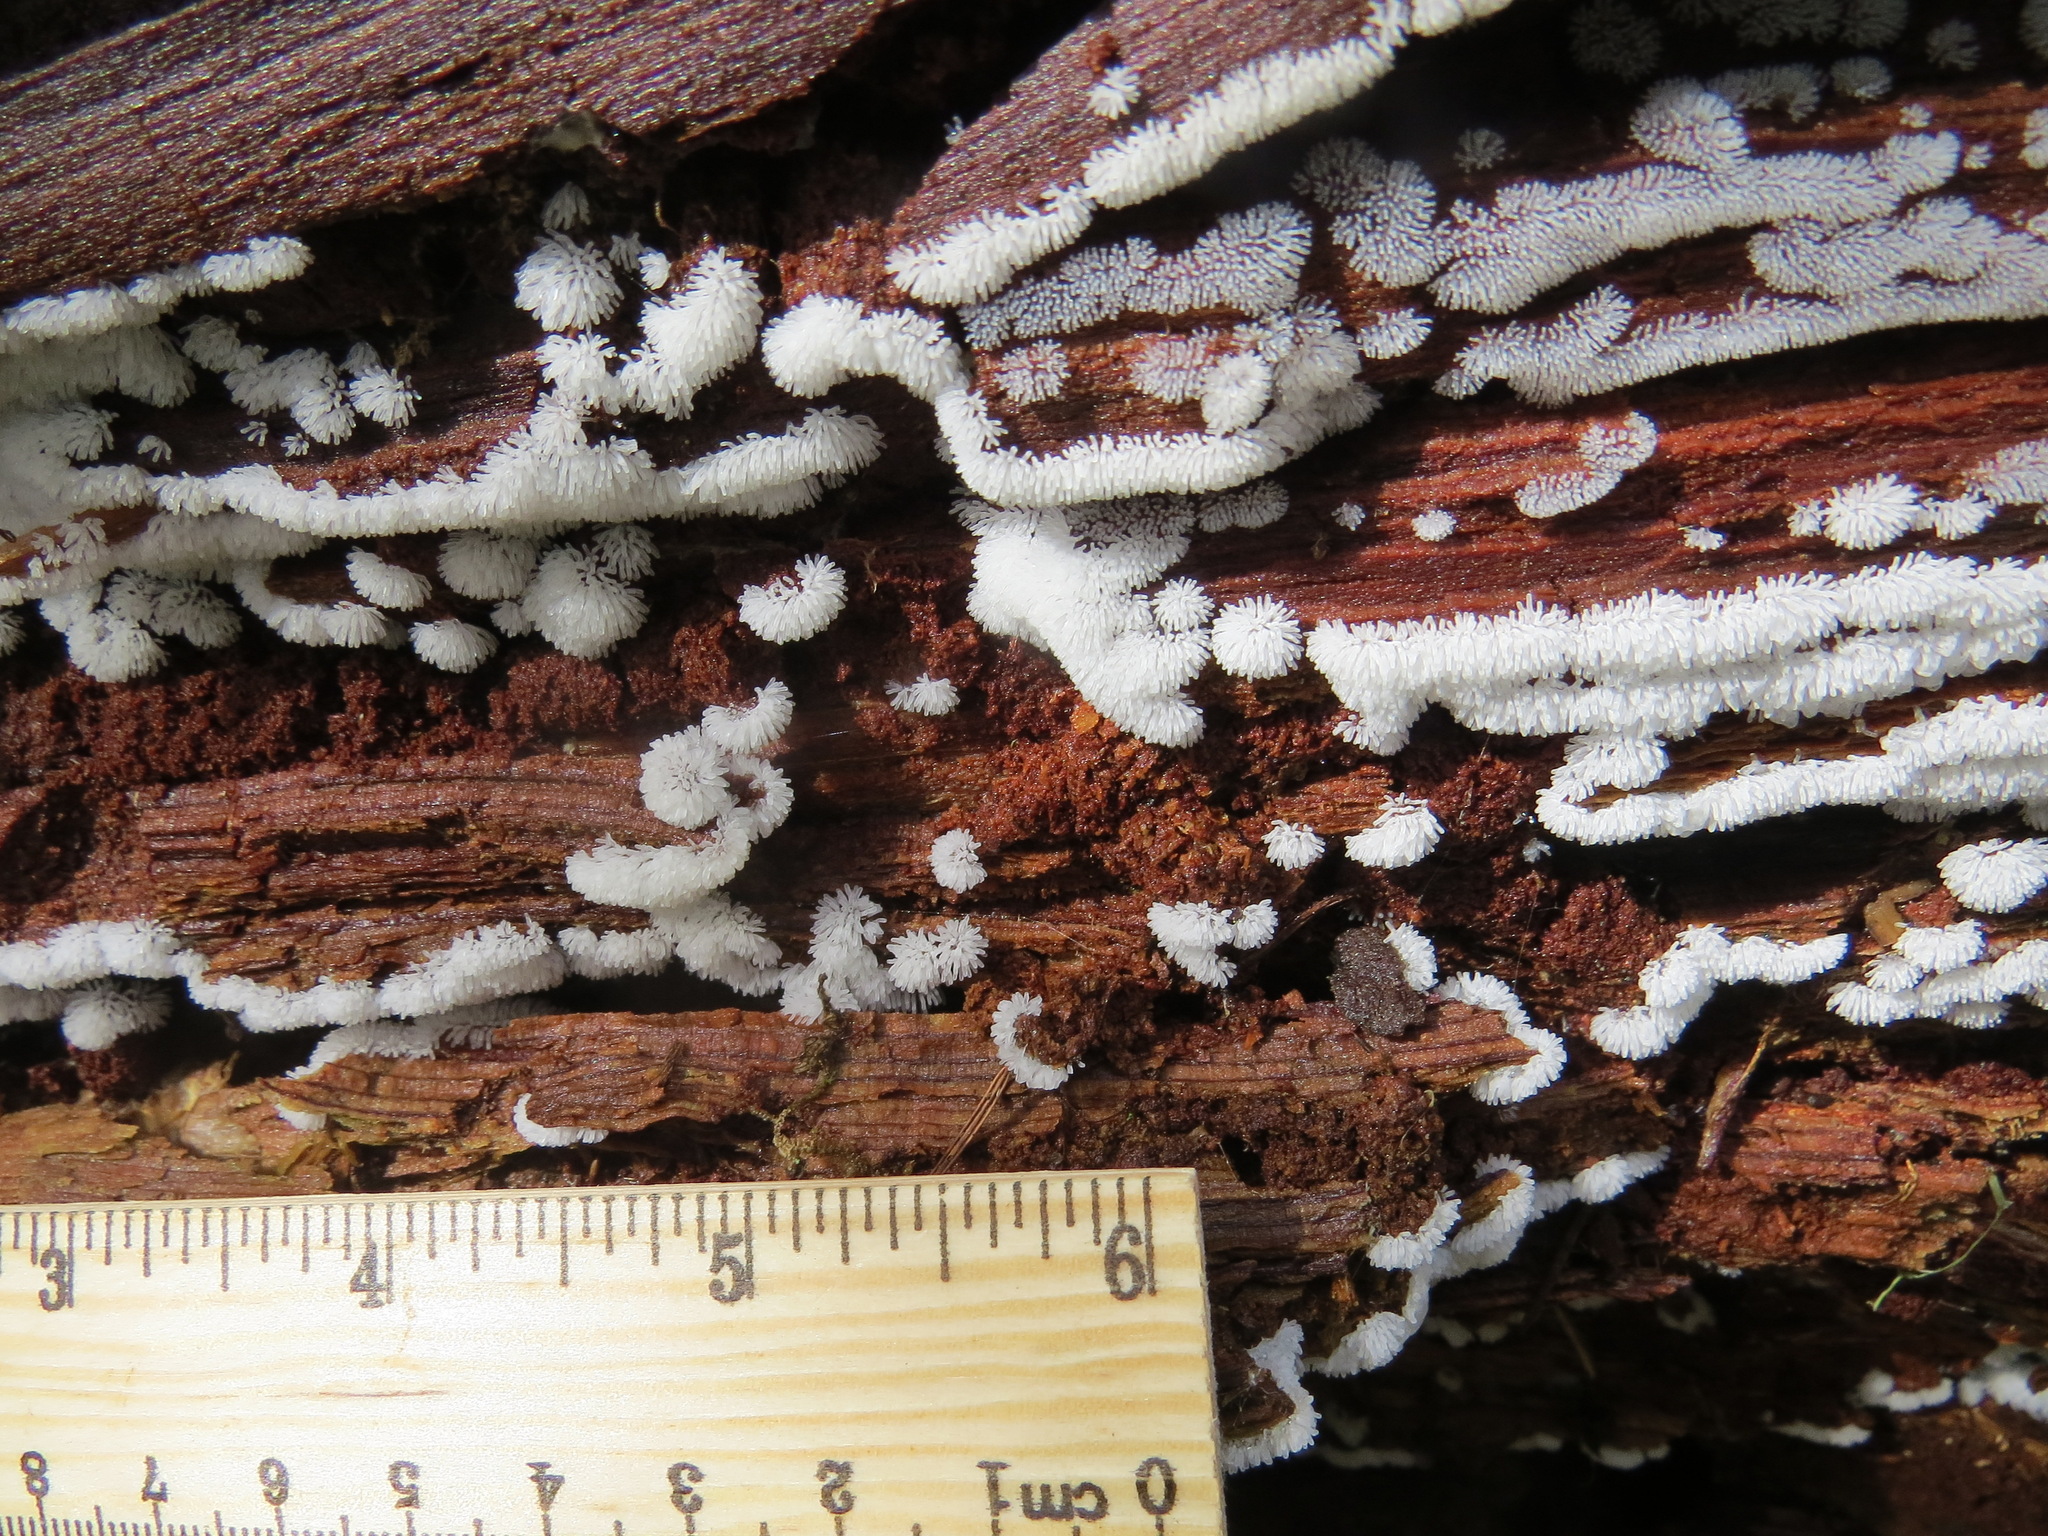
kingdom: Protozoa
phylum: Mycetozoa
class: Protosteliomycetes
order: Ceratiomyxales
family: Ceratiomyxaceae
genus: Ceratiomyxa
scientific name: Ceratiomyxa fruticulosa
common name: Honeycomb coral slime mold
